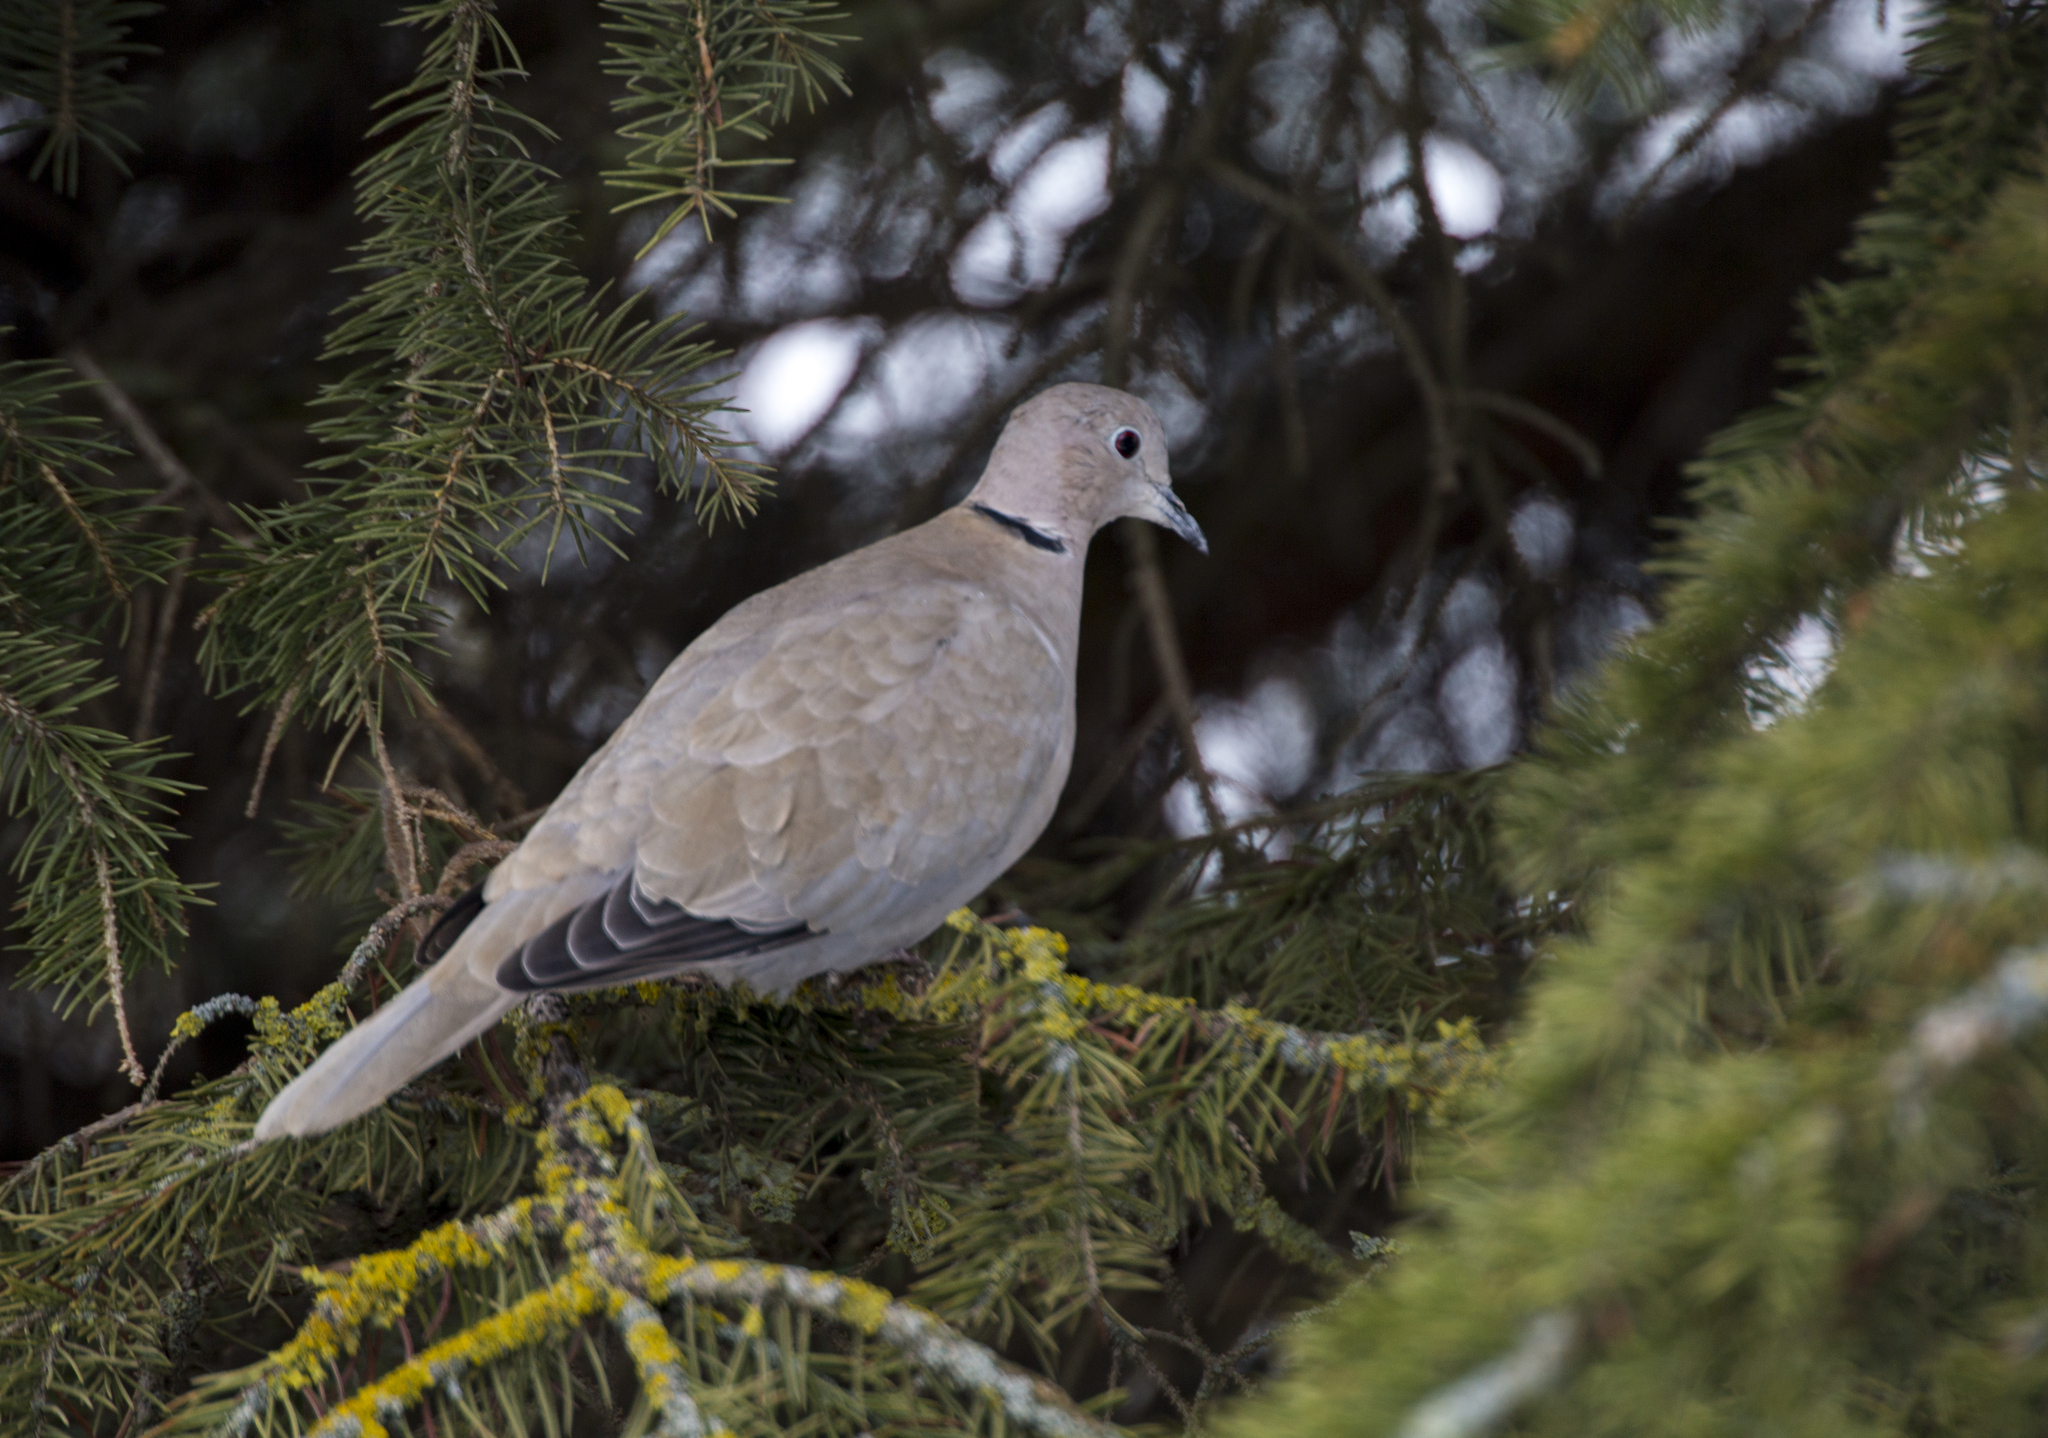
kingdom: Animalia
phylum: Chordata
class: Aves
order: Columbiformes
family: Columbidae
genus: Streptopelia
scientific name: Streptopelia decaocto
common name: Eurasian collared dove
